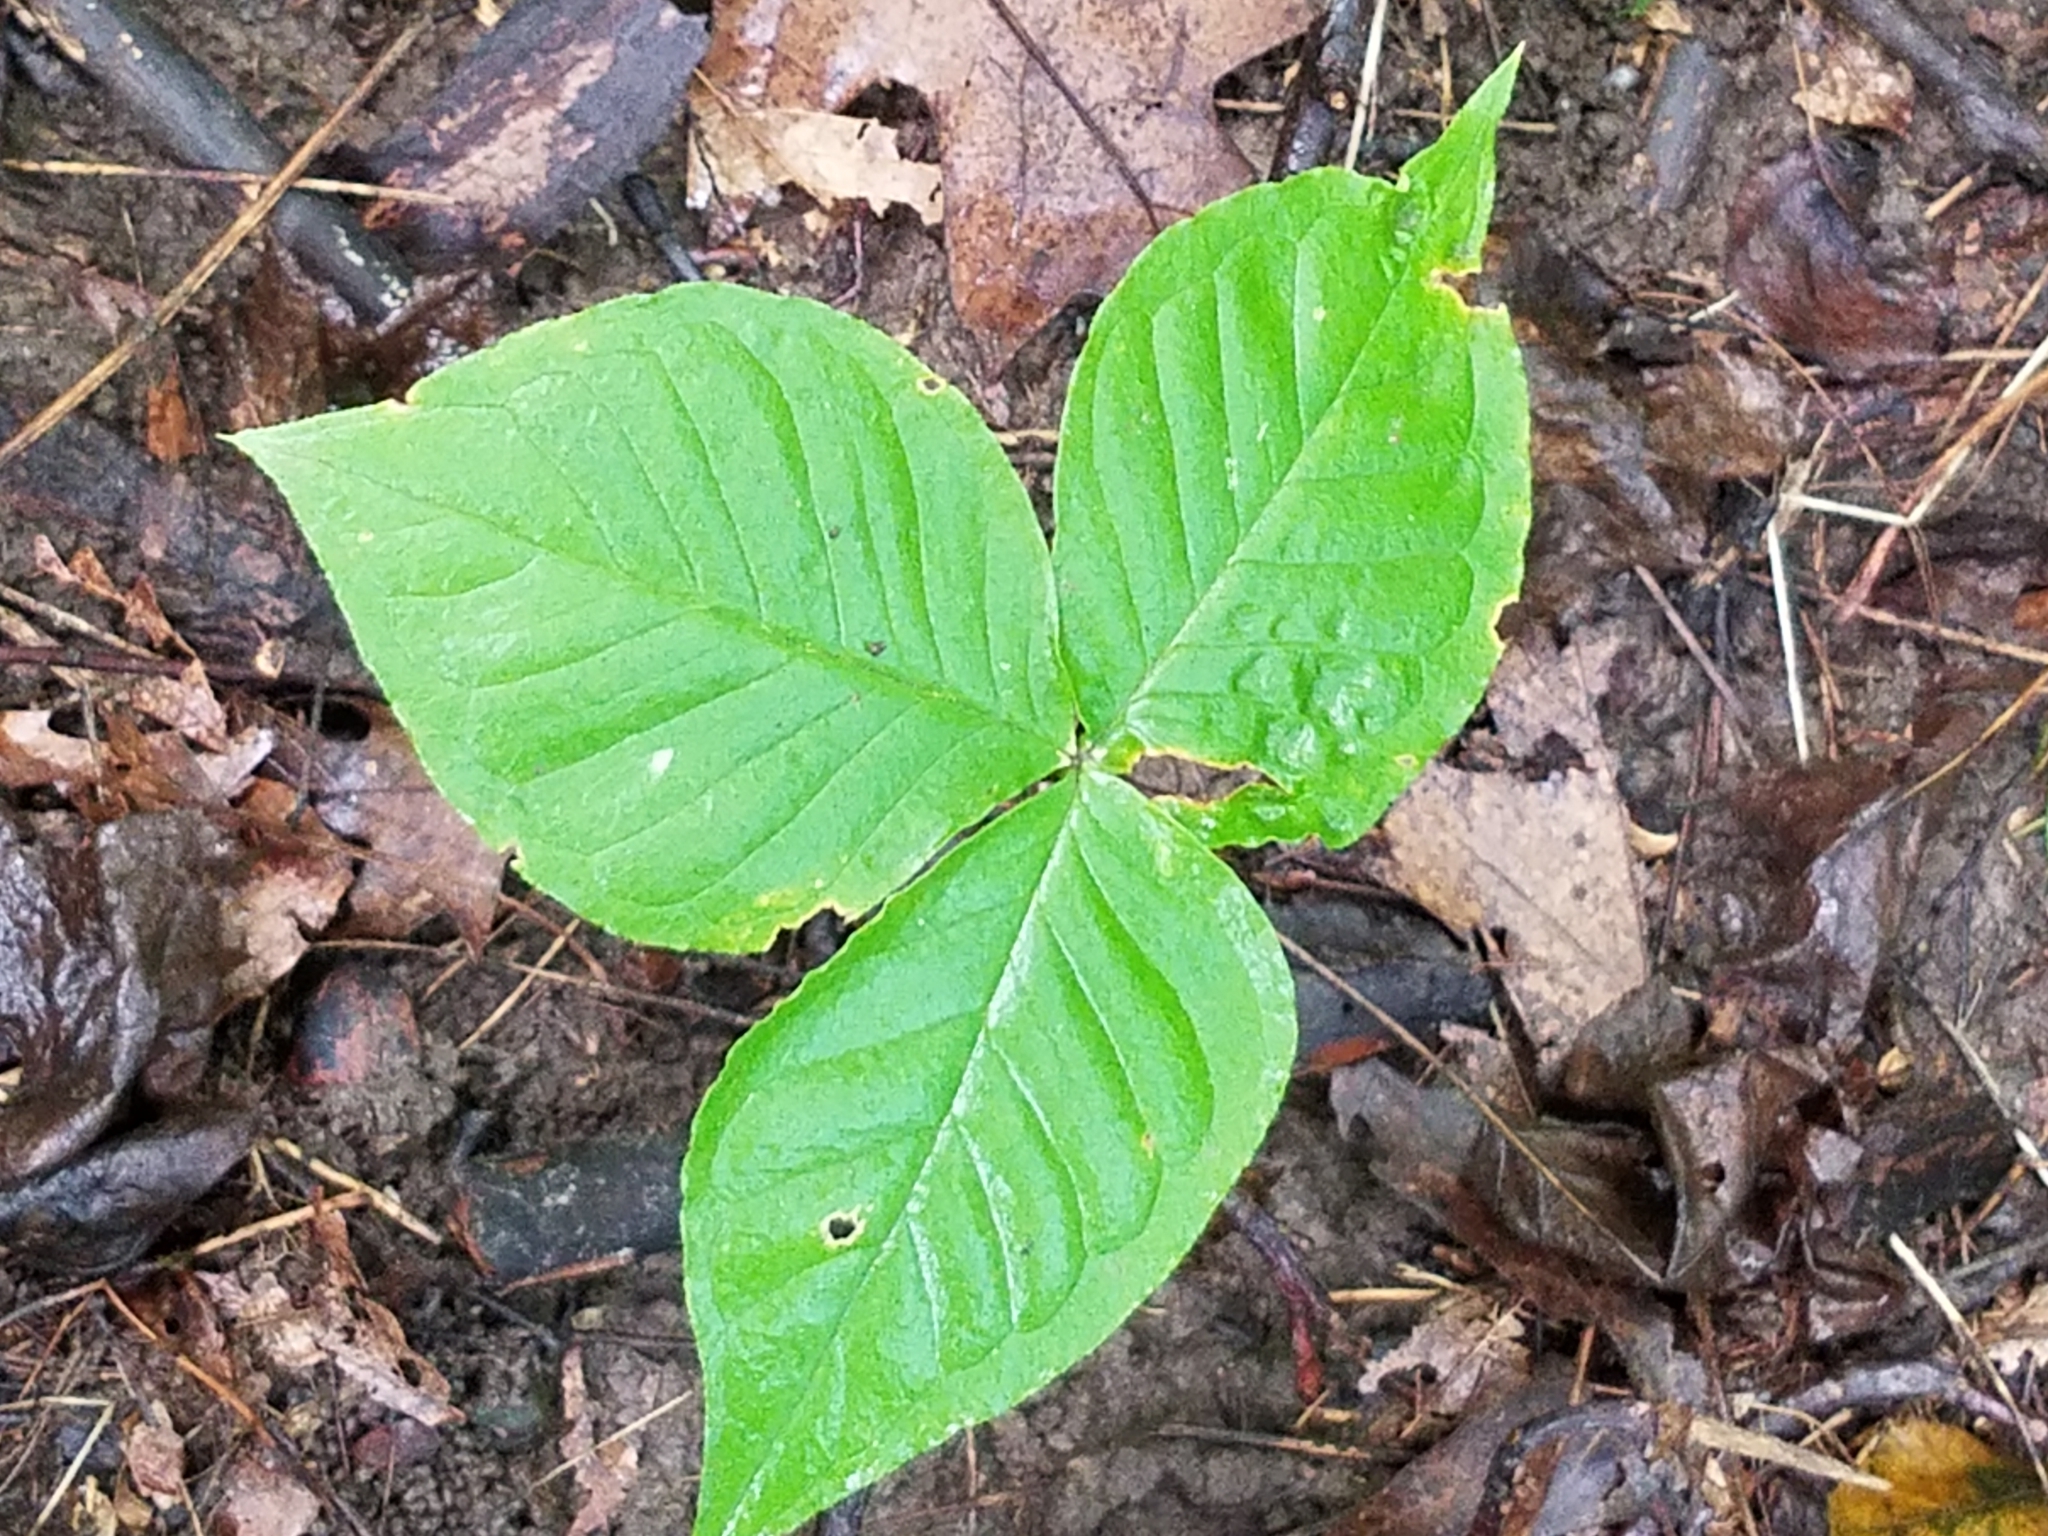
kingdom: Plantae
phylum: Tracheophyta
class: Liliopsida
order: Alismatales
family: Araceae
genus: Arisaema
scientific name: Arisaema triphyllum
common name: Jack-in-the-pulpit
